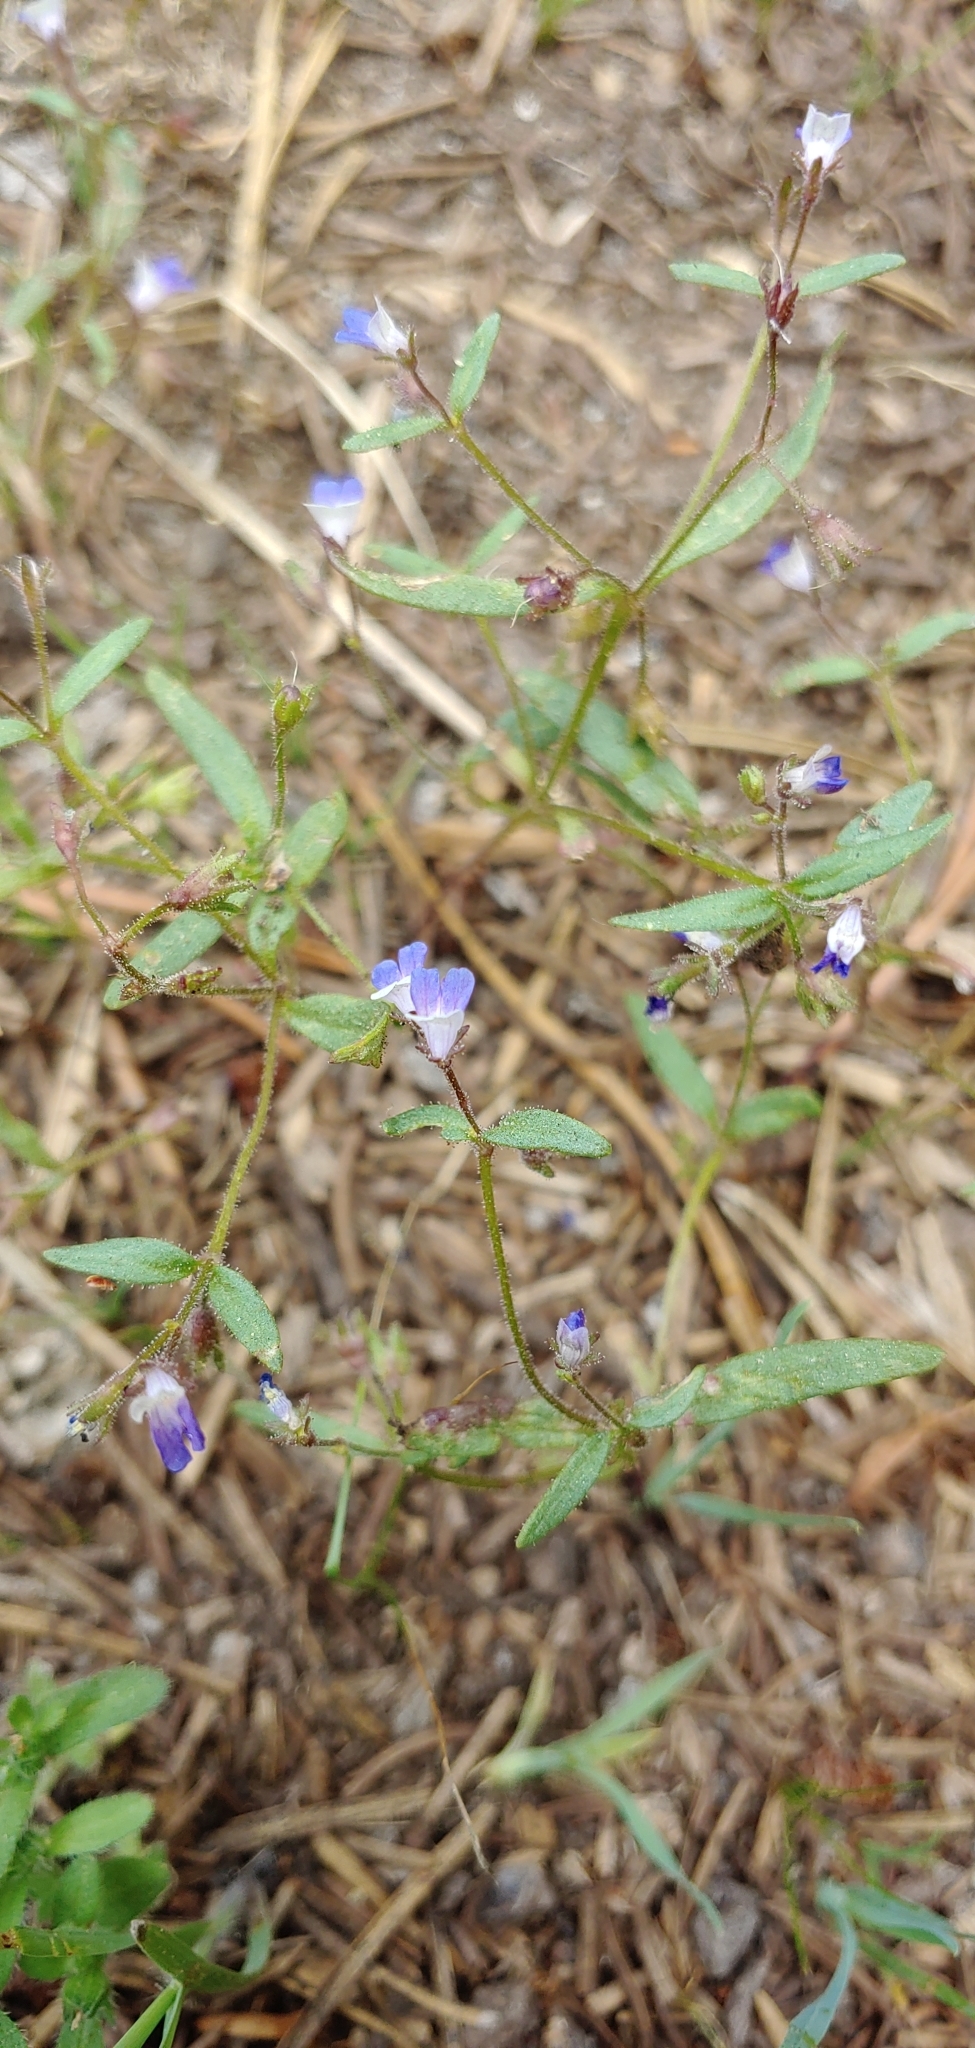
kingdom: Plantae
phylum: Tracheophyta
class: Magnoliopsida
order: Lamiales
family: Plantaginaceae
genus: Collinsia
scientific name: Collinsia torreyi
